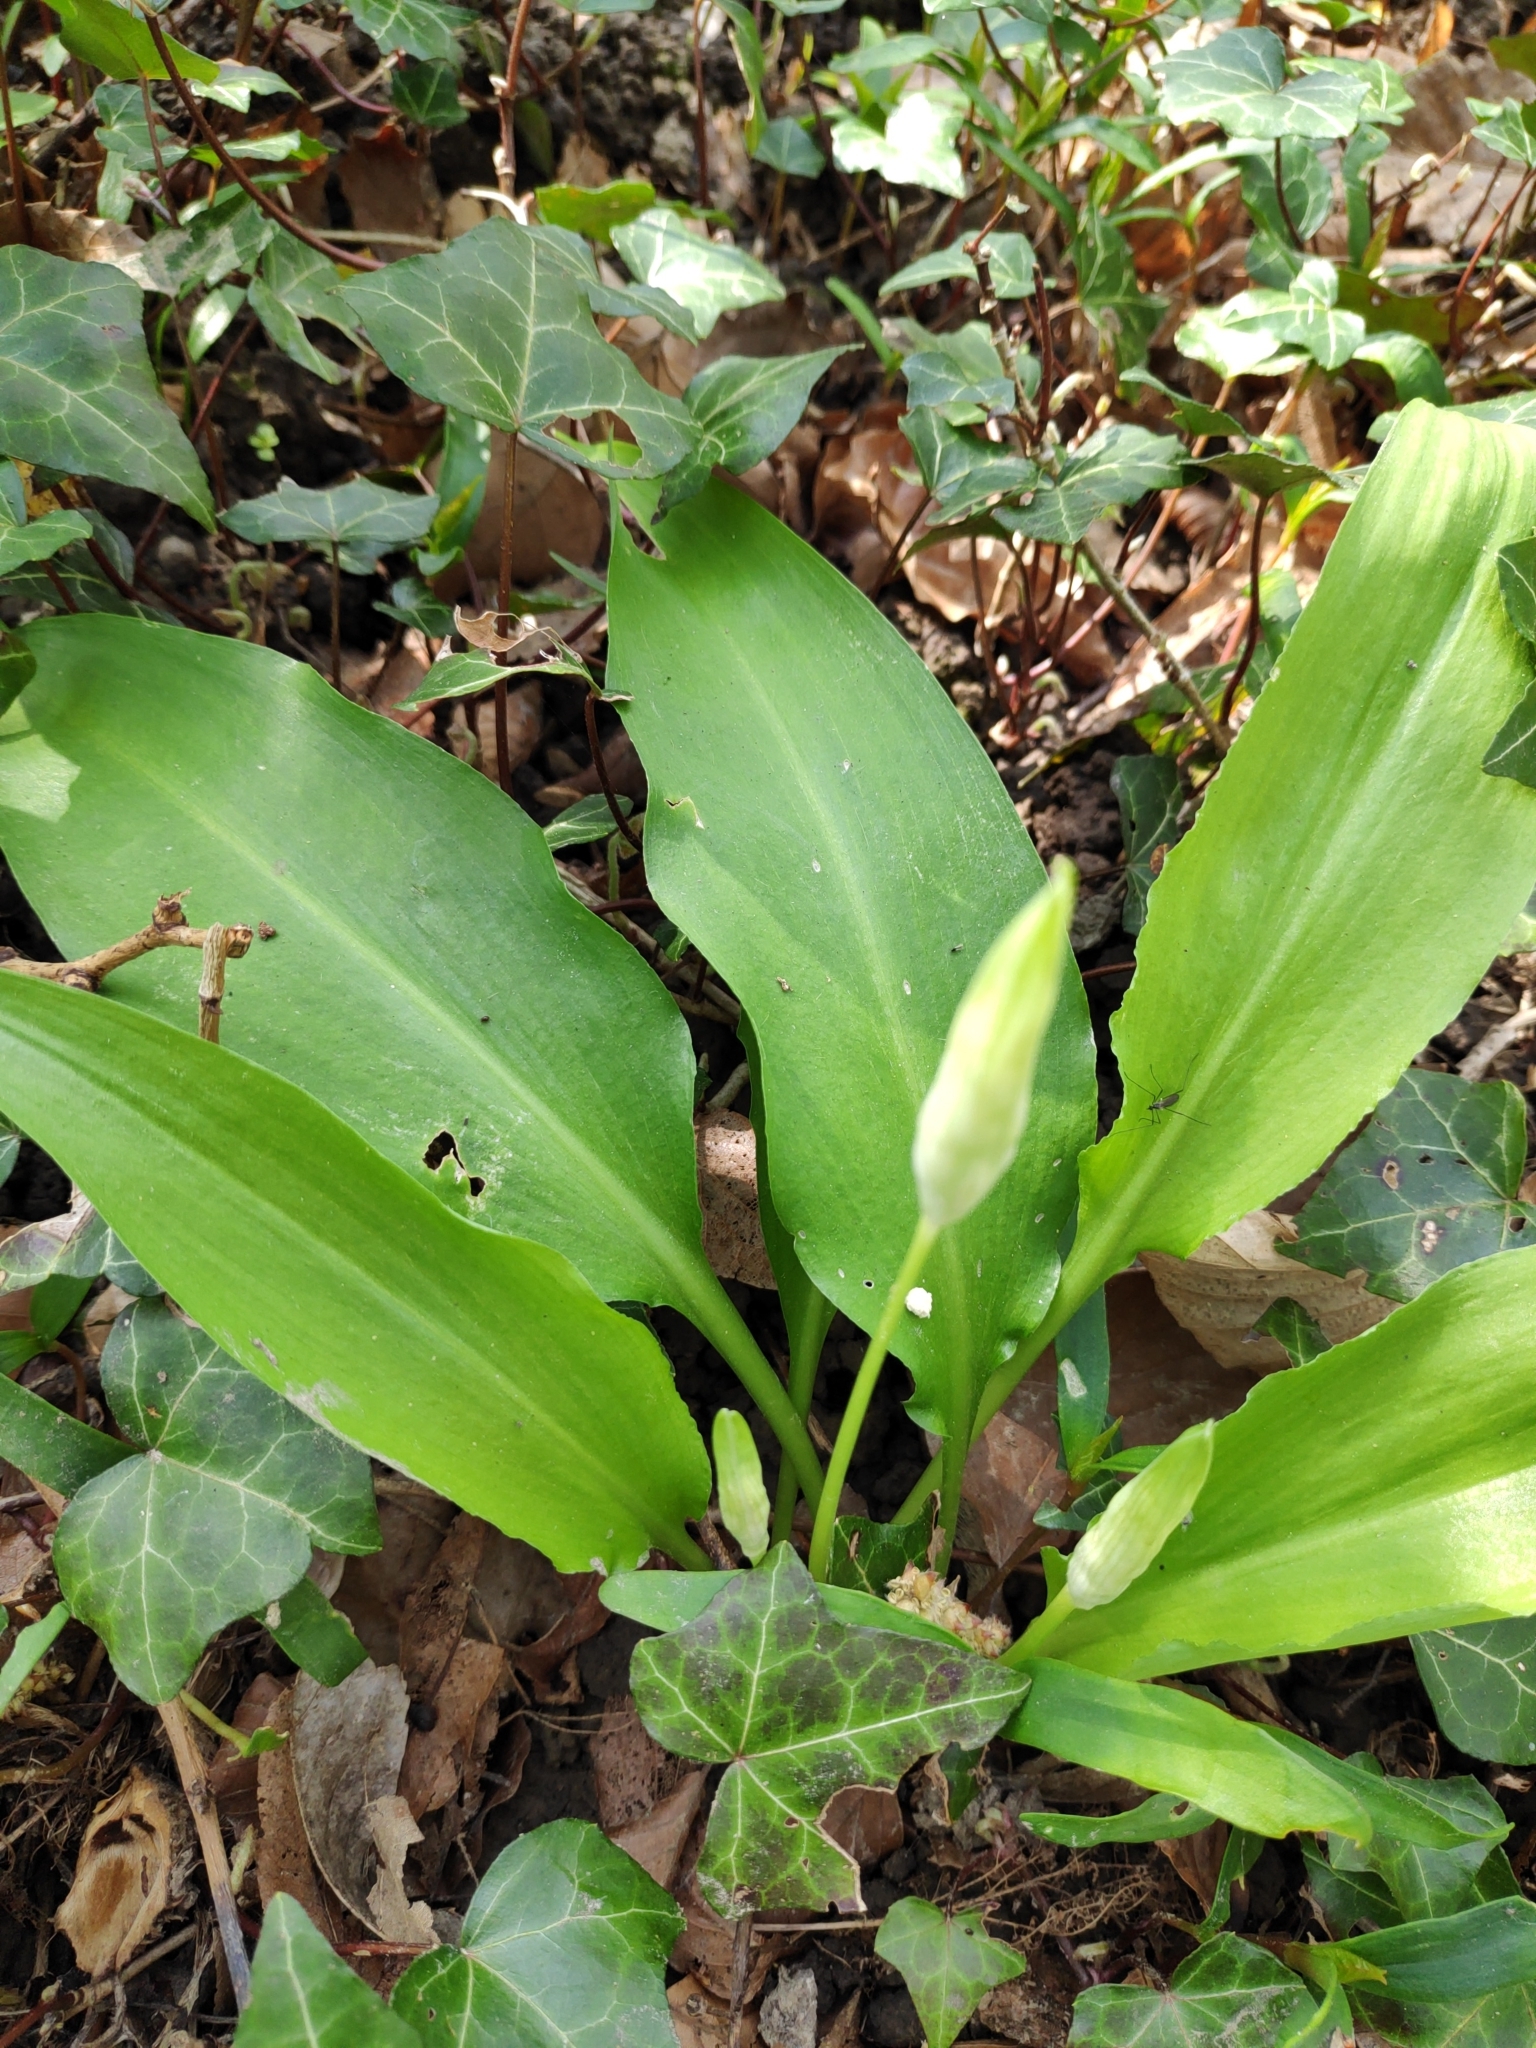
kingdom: Plantae
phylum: Tracheophyta
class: Liliopsida
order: Asparagales
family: Amaryllidaceae
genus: Allium
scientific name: Allium ursinum
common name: Ramsons
